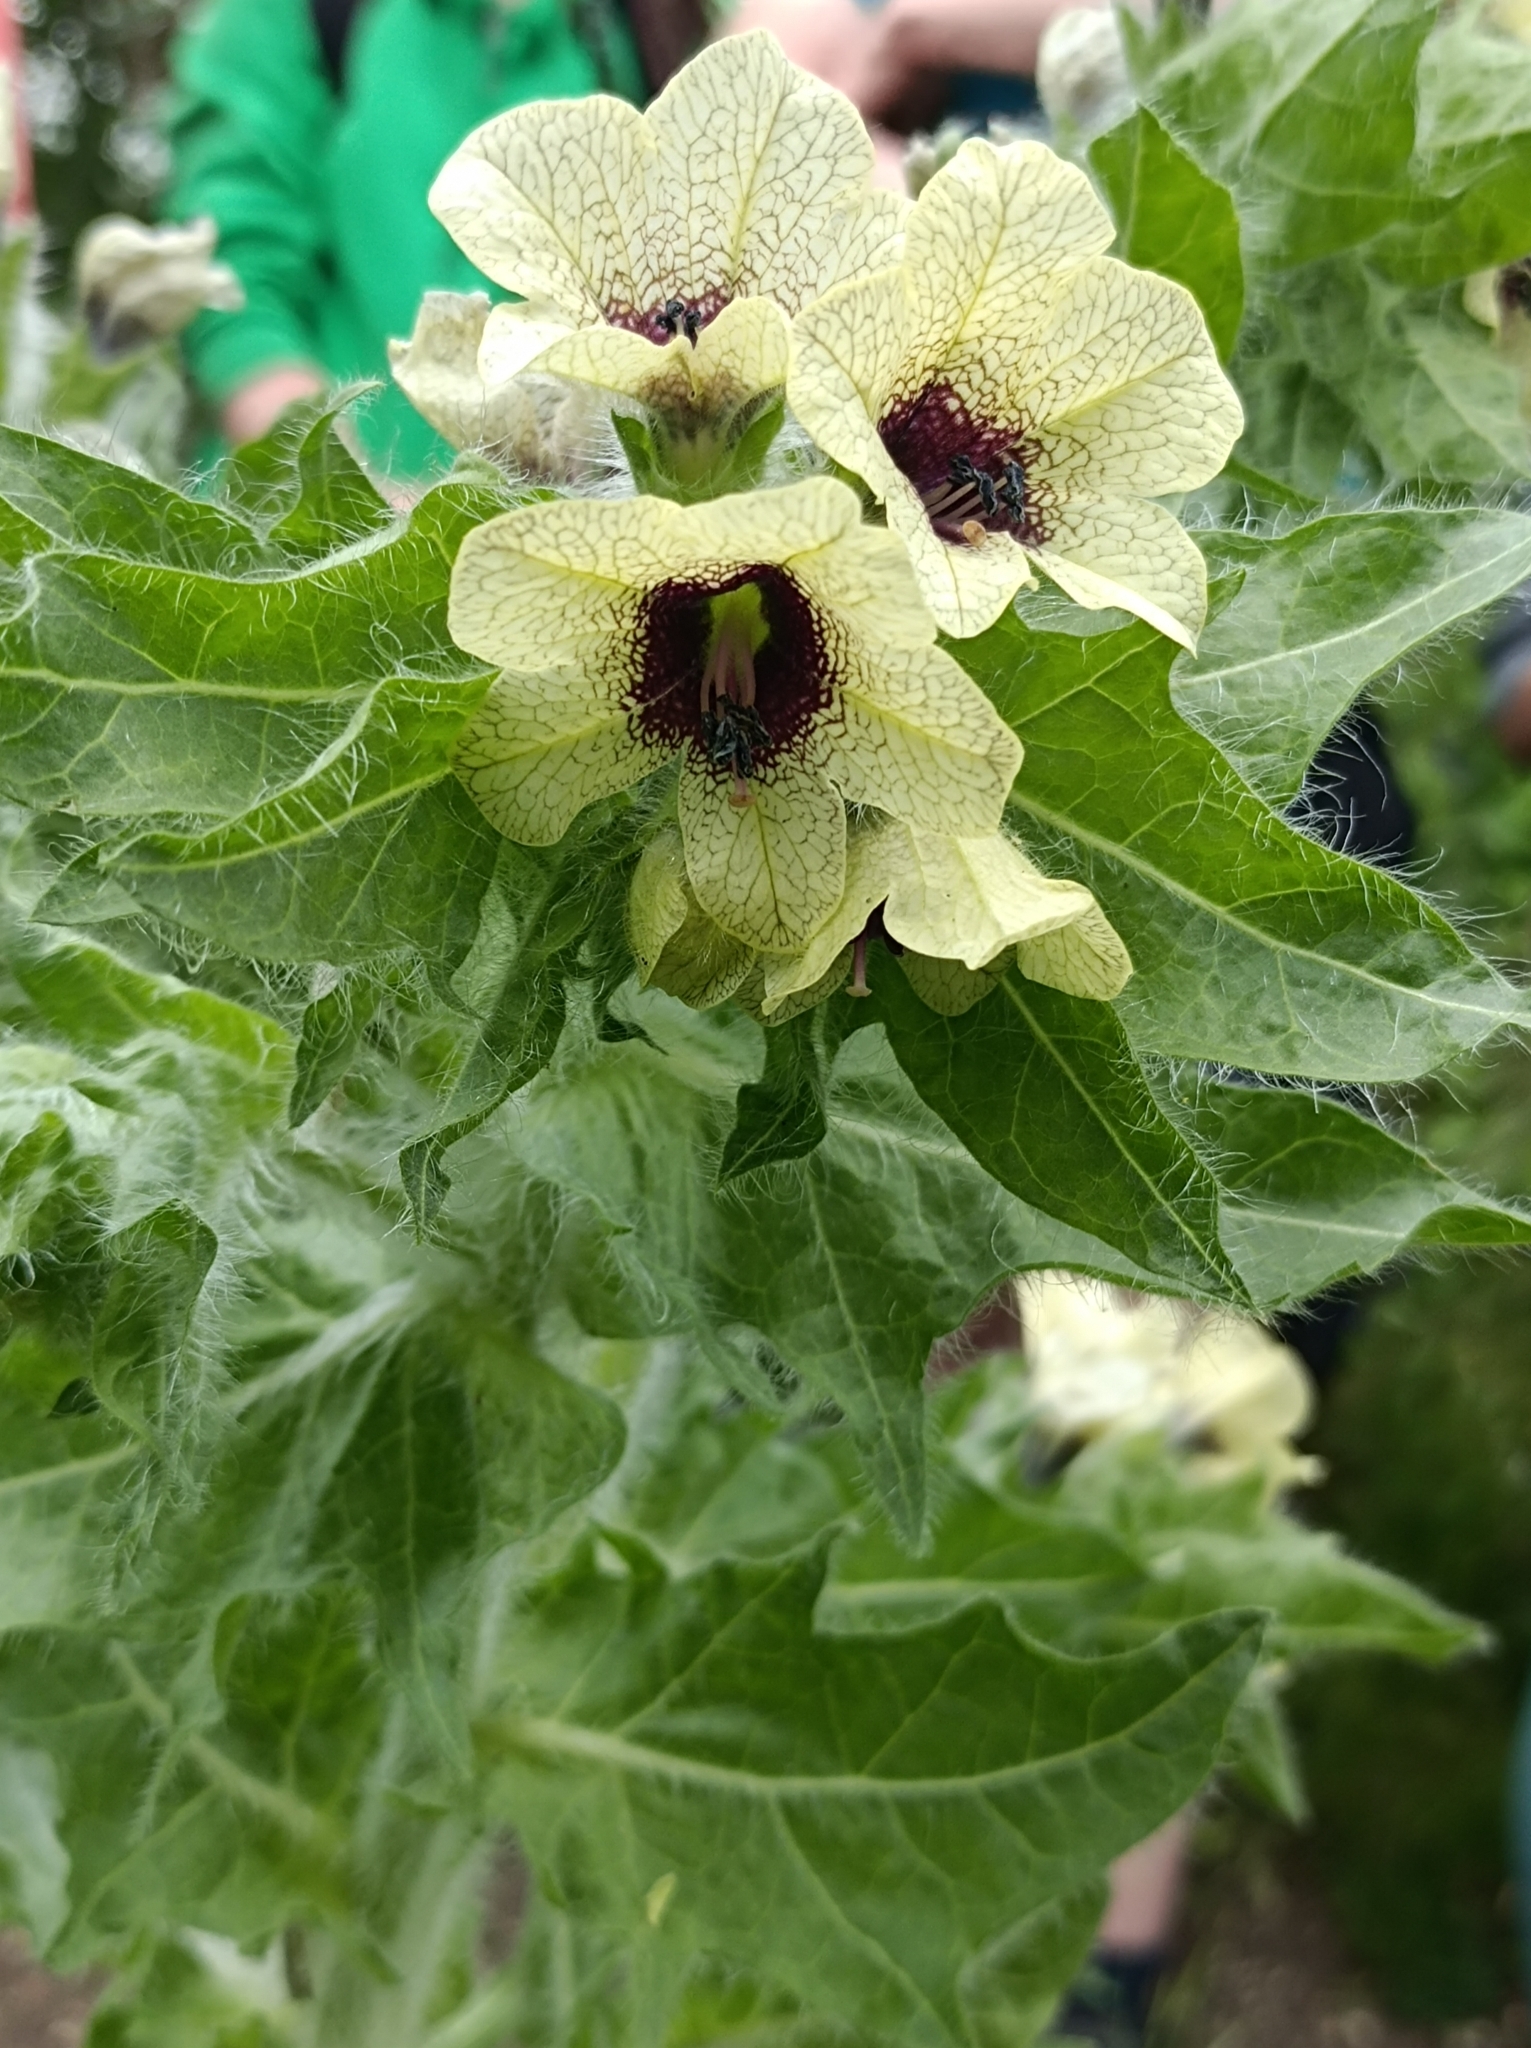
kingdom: Plantae
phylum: Tracheophyta
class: Magnoliopsida
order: Solanales
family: Solanaceae
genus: Hyoscyamus
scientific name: Hyoscyamus niger
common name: Henbane
